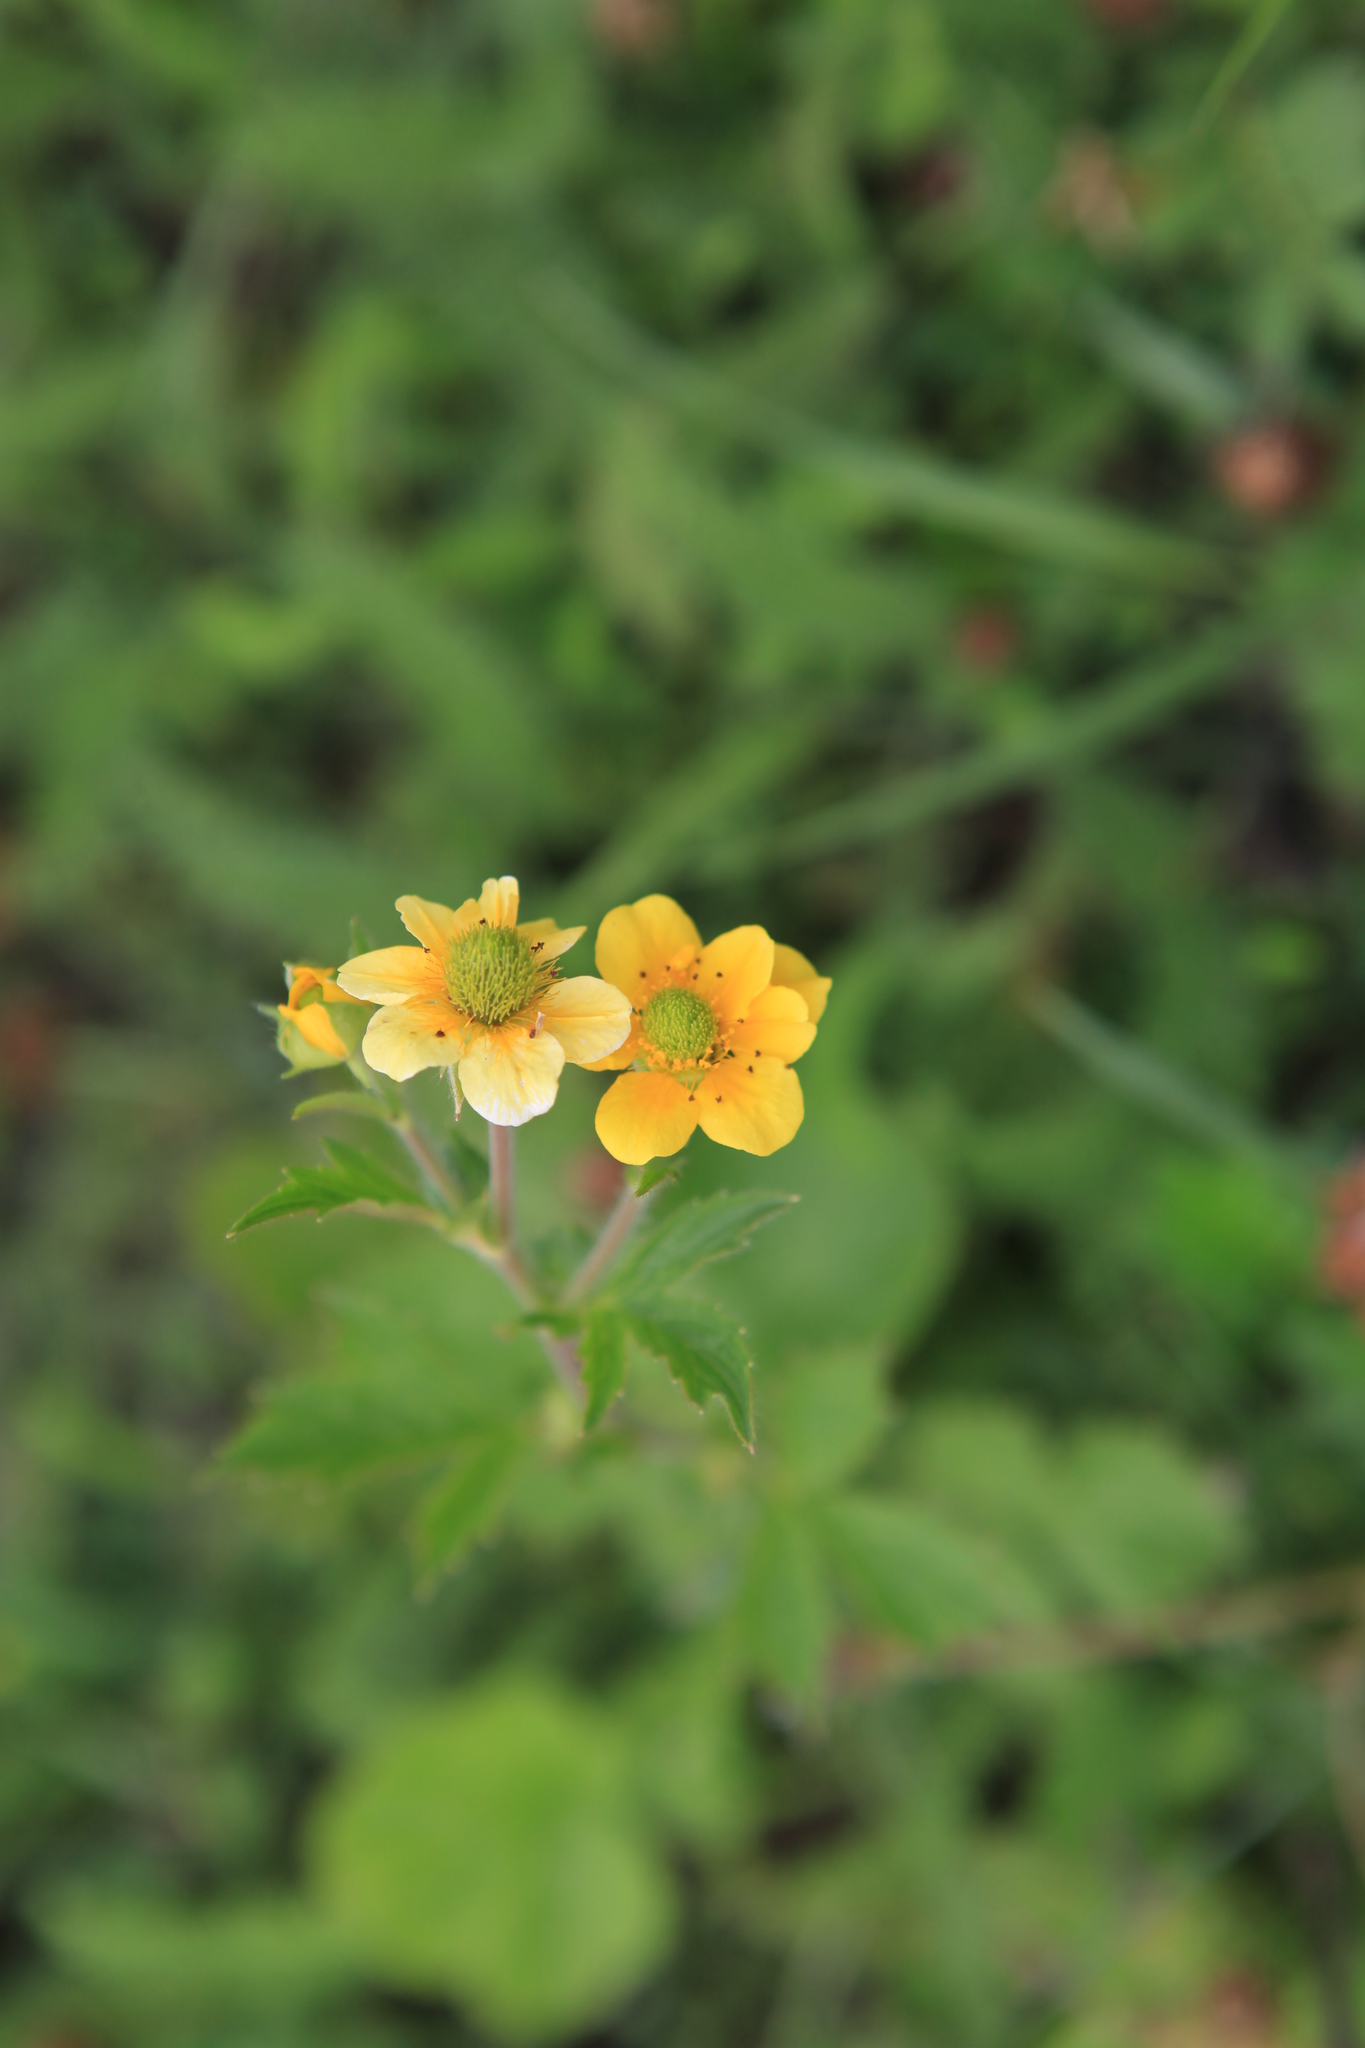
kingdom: Plantae
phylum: Tracheophyta
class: Magnoliopsida
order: Rosales
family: Rosaceae
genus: Geum
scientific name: Geum aleppicum
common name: Yellow avens
